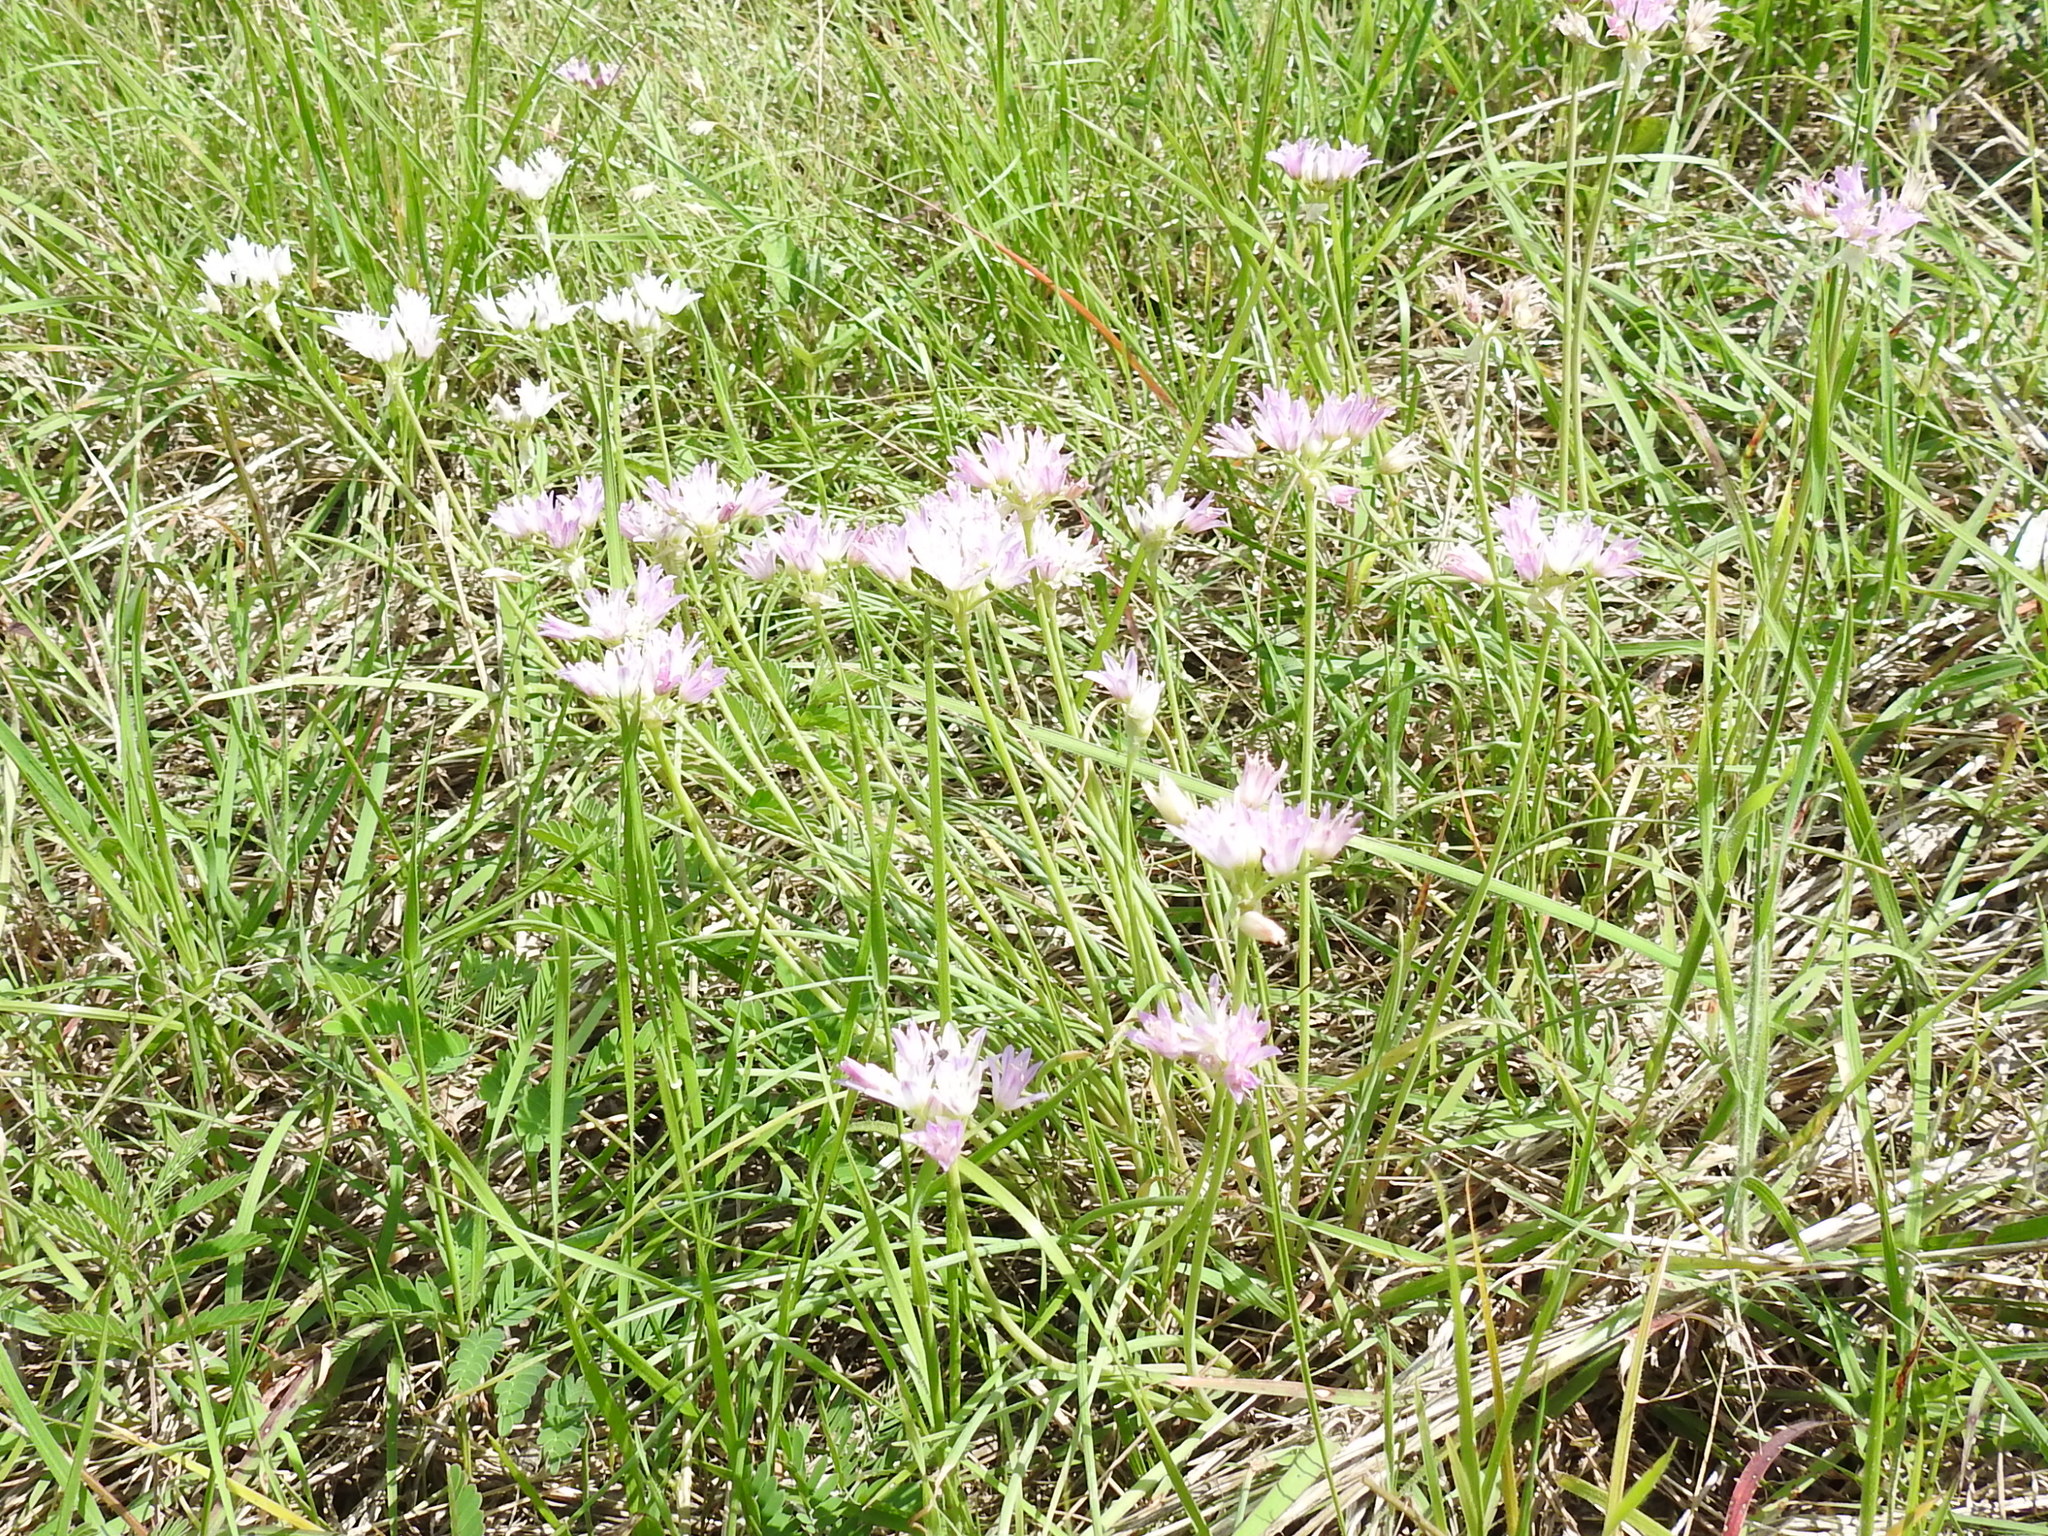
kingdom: Plantae
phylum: Tracheophyta
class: Liliopsida
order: Asparagales
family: Amaryllidaceae
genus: Allium
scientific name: Allium drummondii
